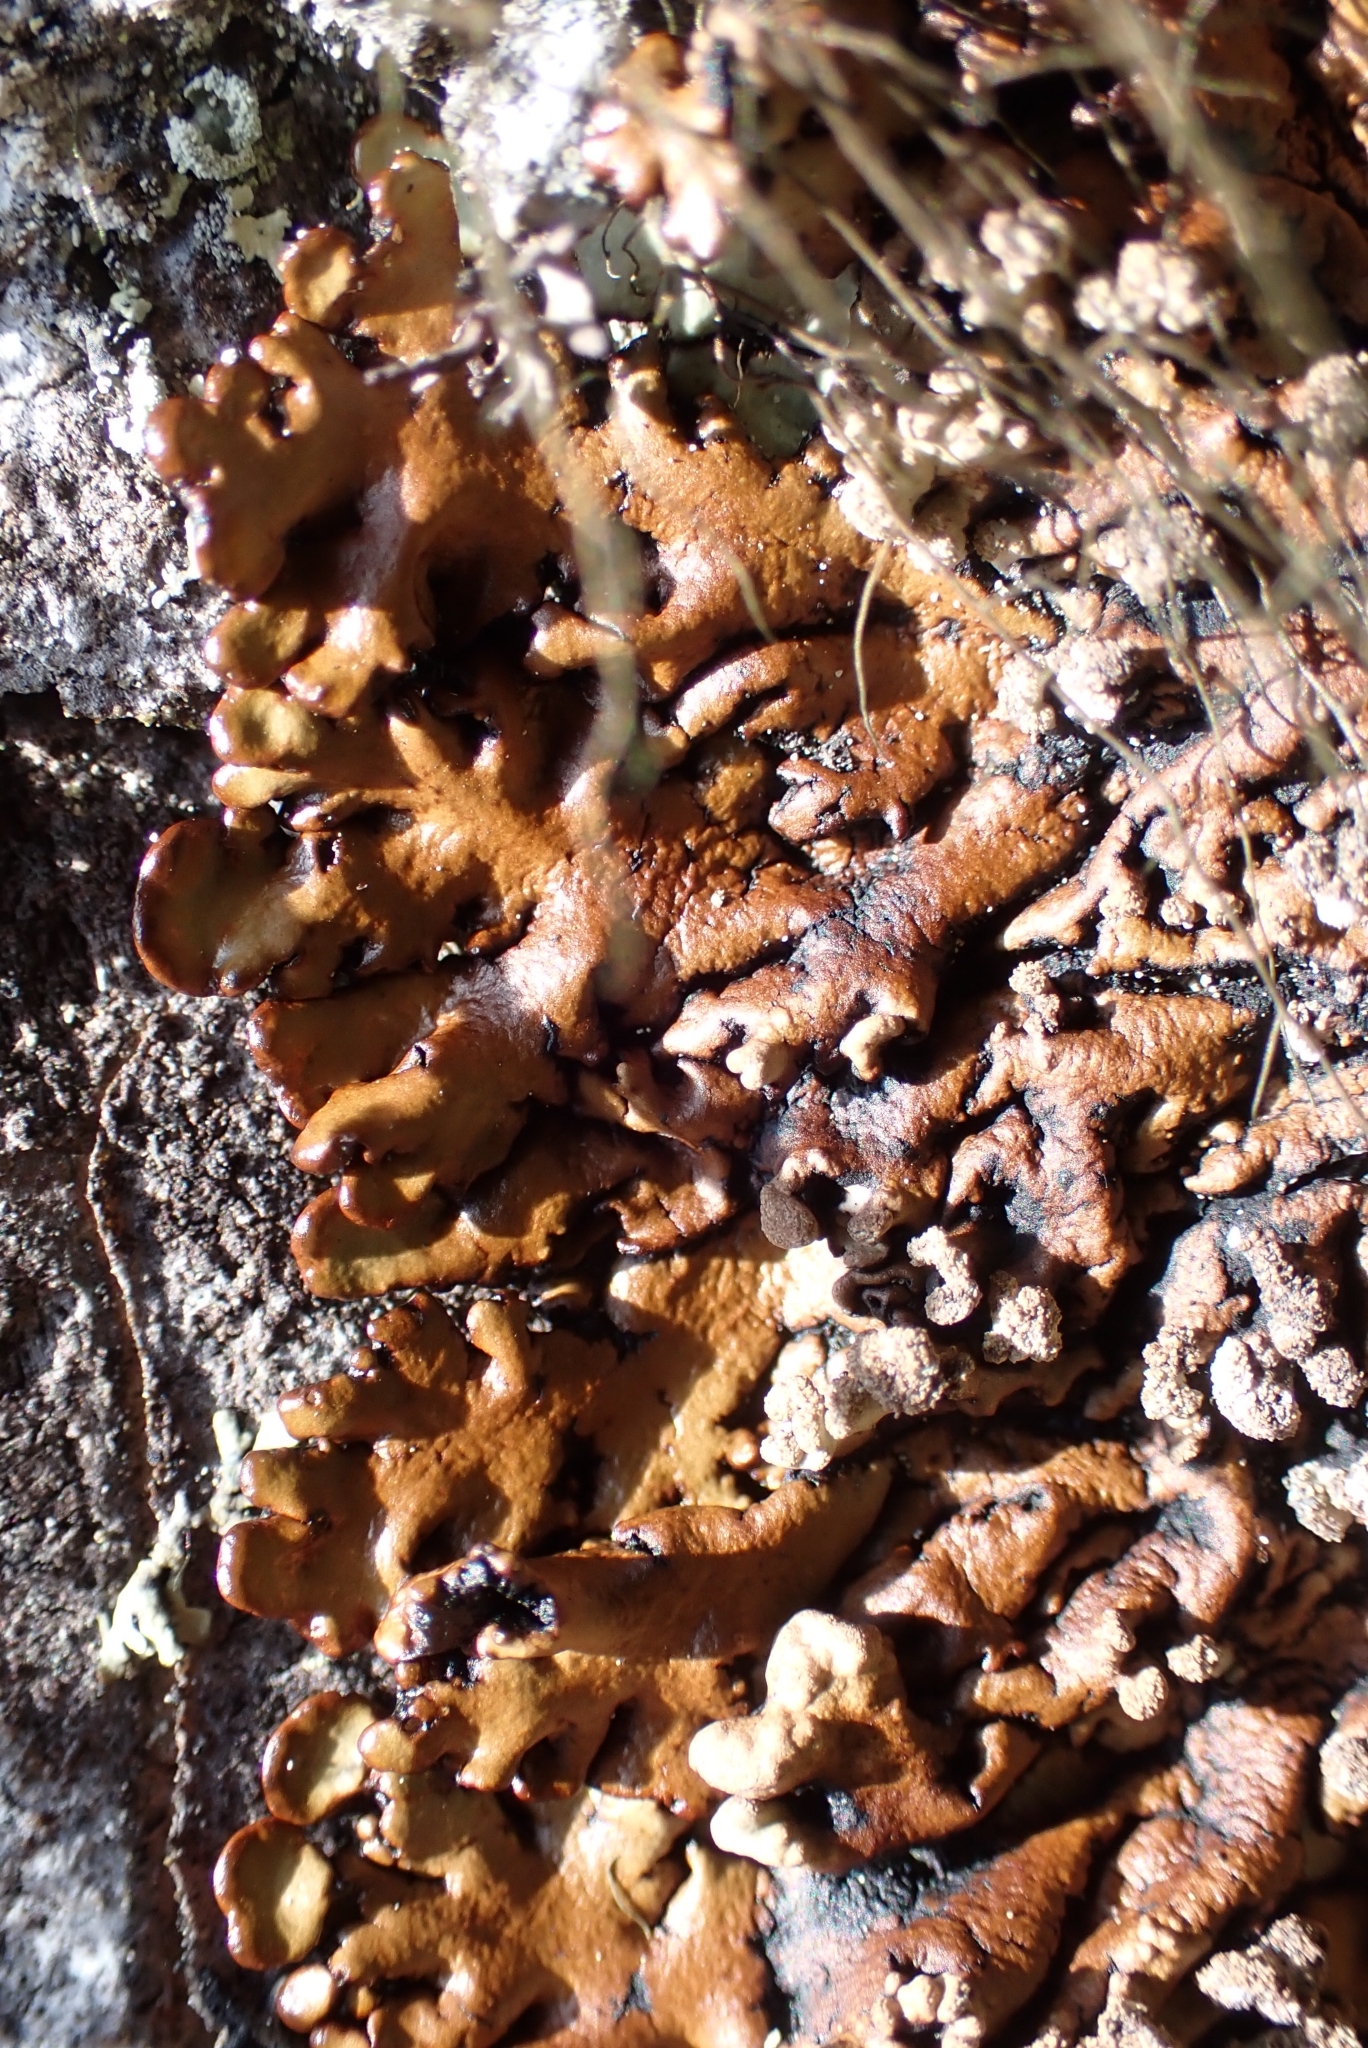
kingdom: Fungi
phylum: Ascomycota
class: Lecanoromycetes
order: Lecanorales
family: Parmeliaceae
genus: Hypogymnia
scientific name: Hypogymnia bitteri
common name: Bitter tube lichen
